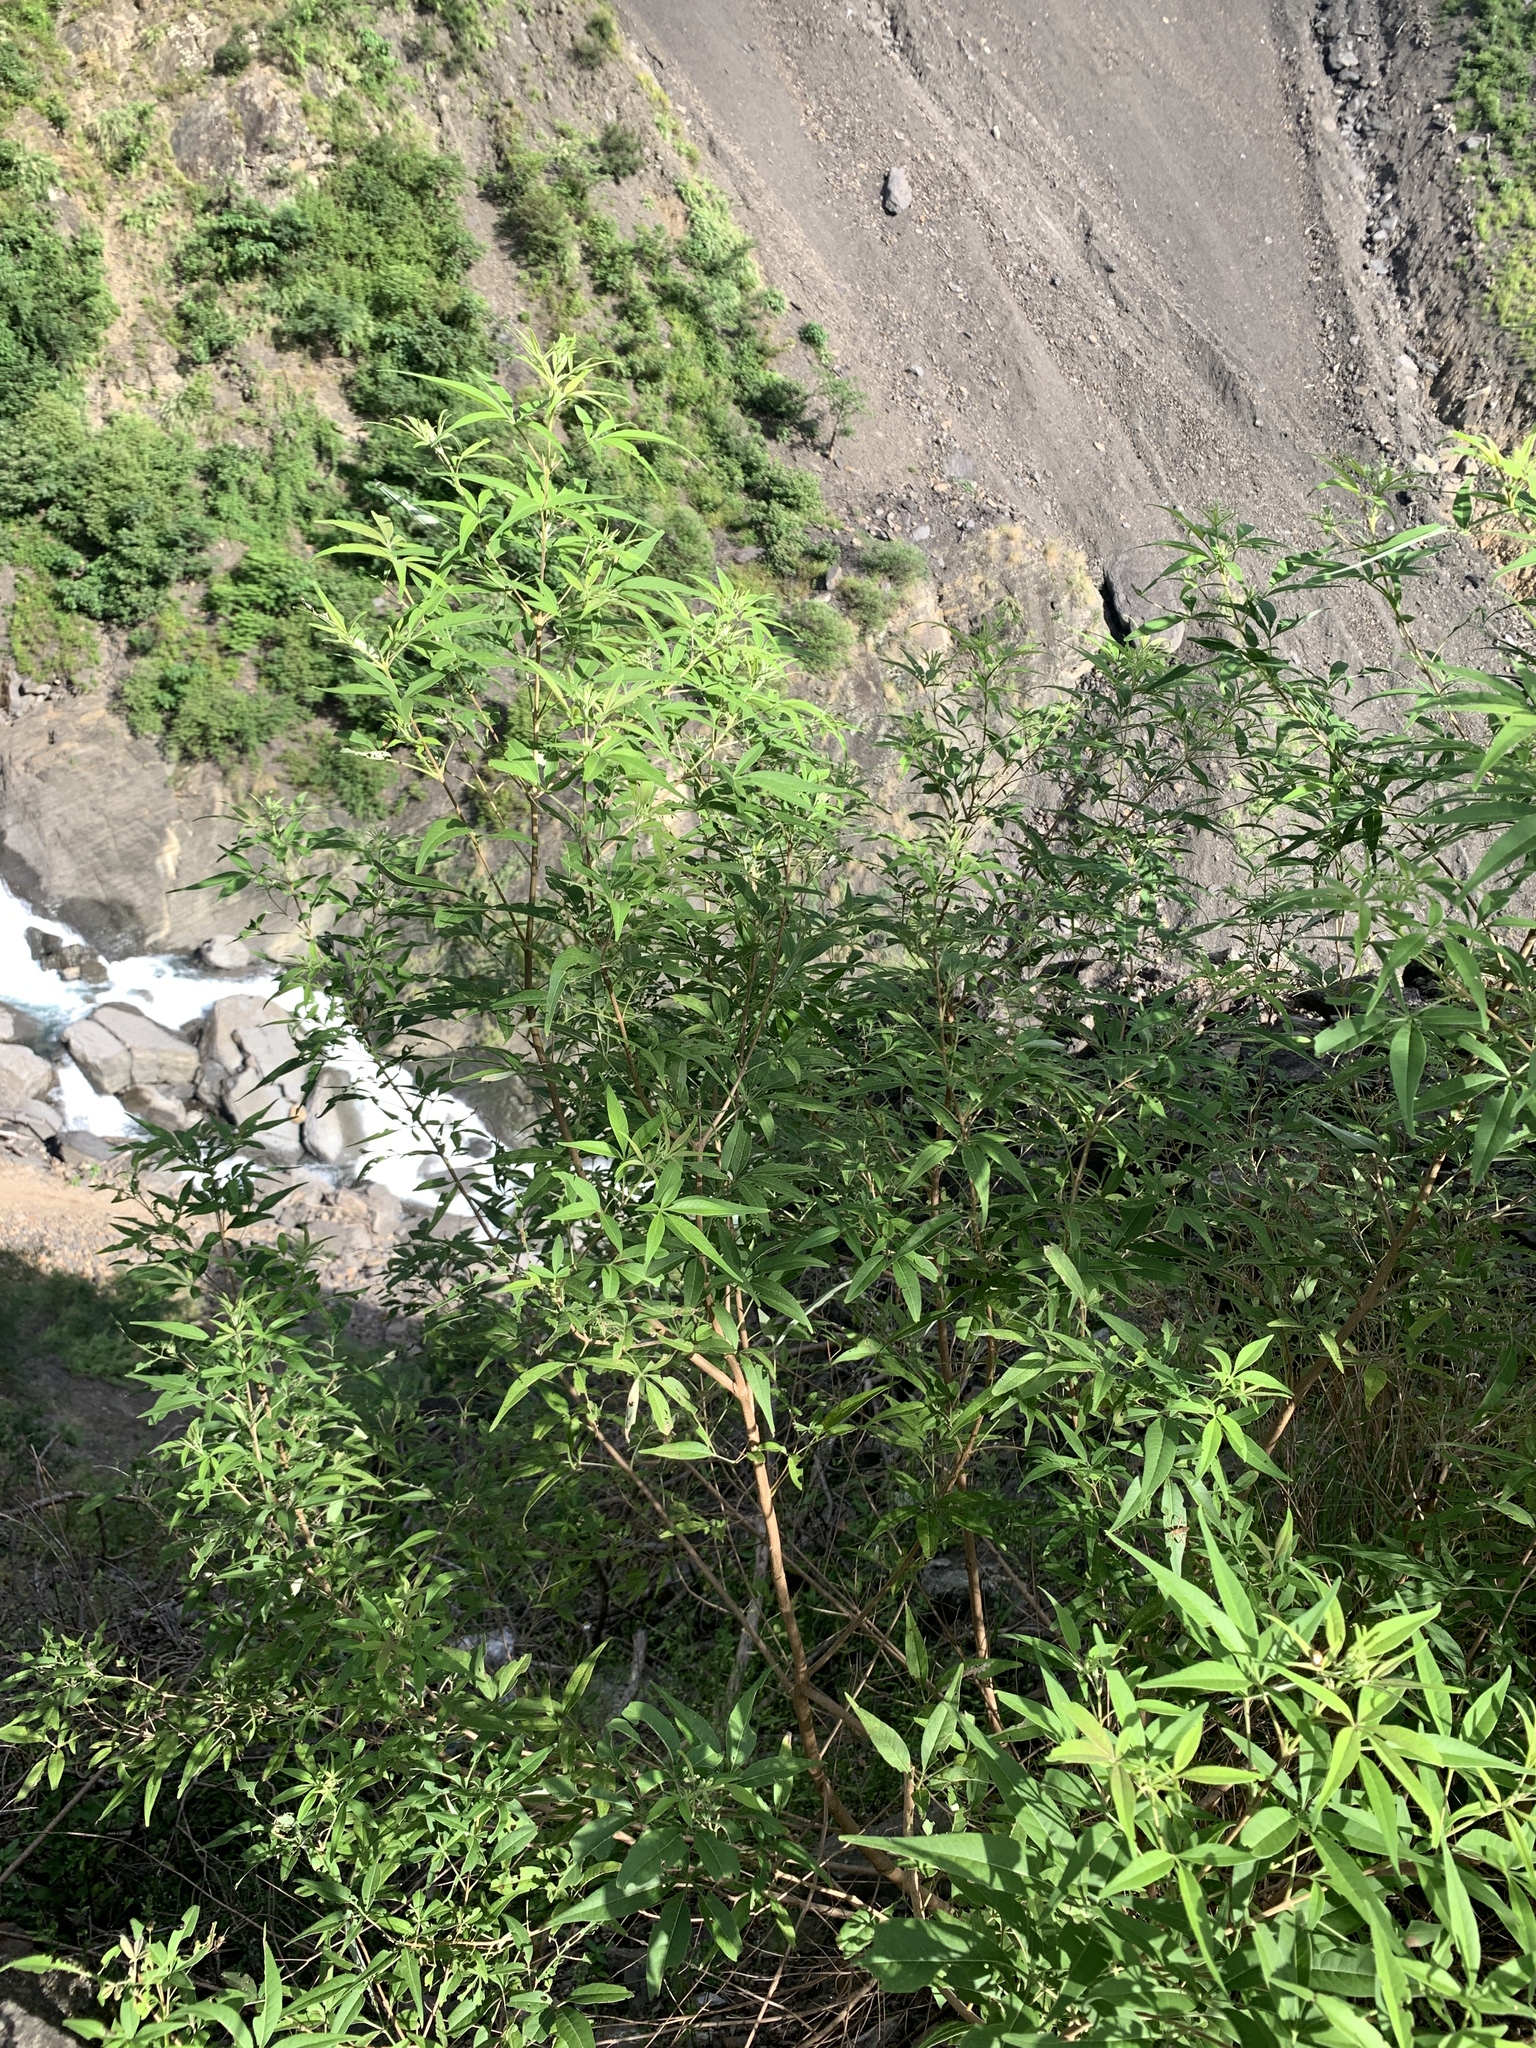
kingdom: Plantae
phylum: Tracheophyta
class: Magnoliopsida
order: Lamiales
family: Lamiaceae
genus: Vitex
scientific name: Vitex negundo
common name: Chinese chastetree
